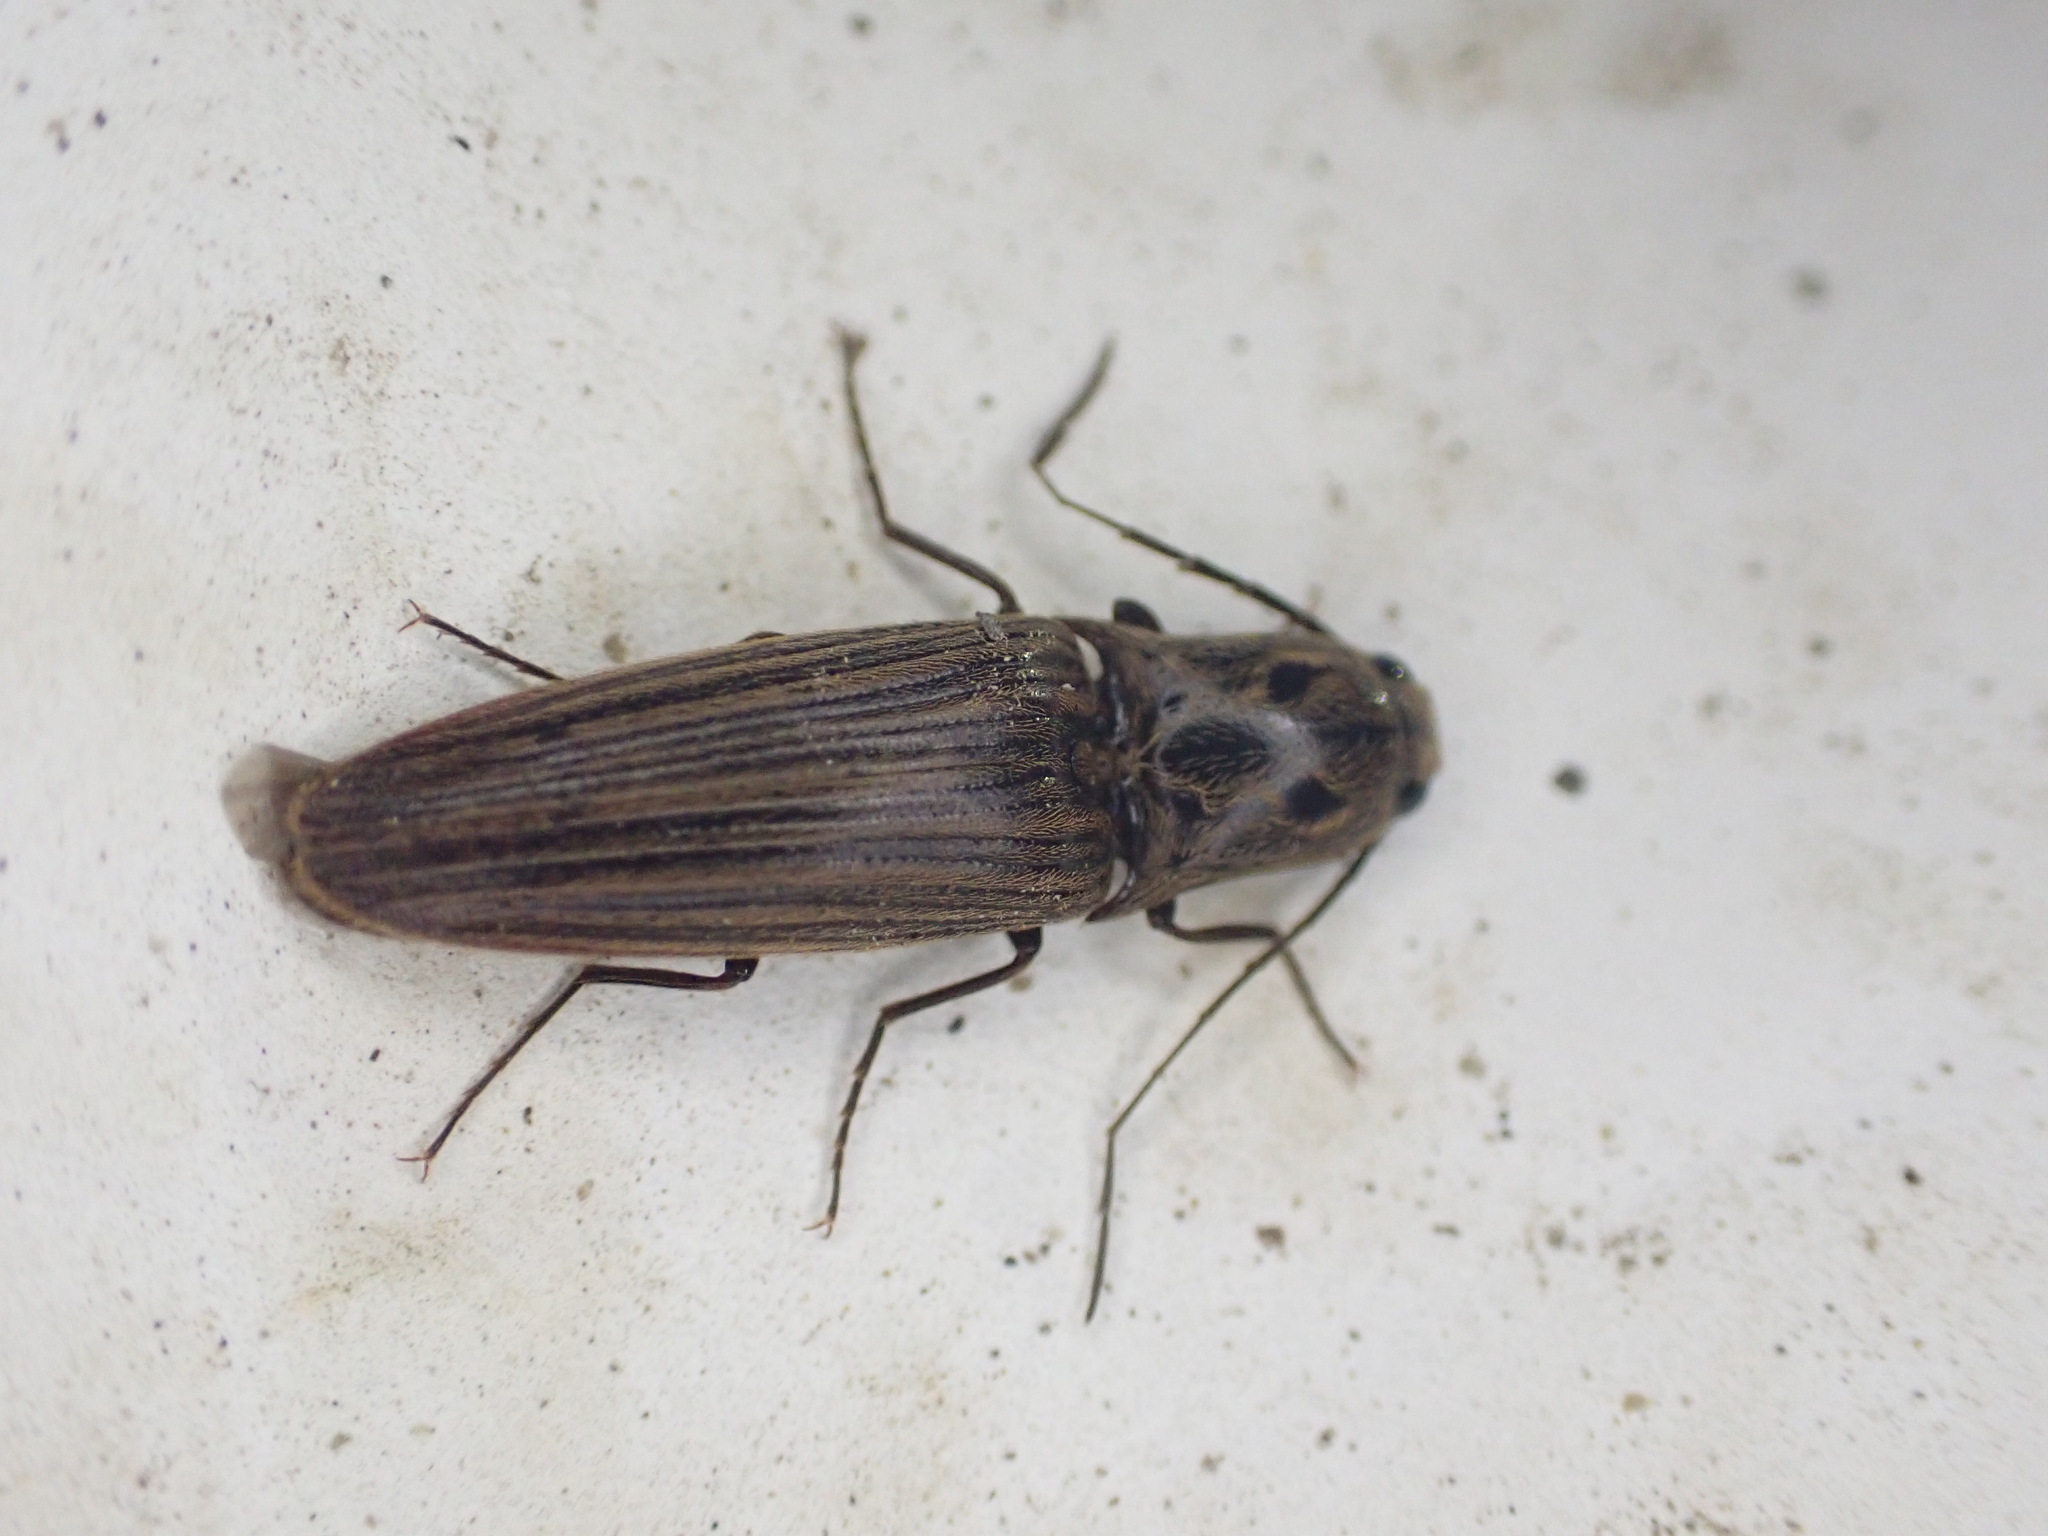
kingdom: Animalia
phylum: Arthropoda
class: Insecta
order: Coleoptera
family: Elateridae
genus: Thoramus
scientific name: Thoramus
